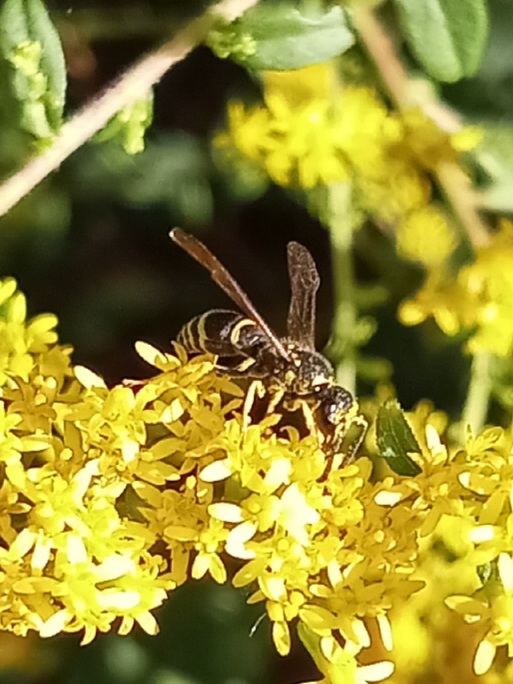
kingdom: Animalia
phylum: Arthropoda
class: Insecta
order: Hymenoptera
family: Vespidae
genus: Ancistrocerus
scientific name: Ancistrocerus
